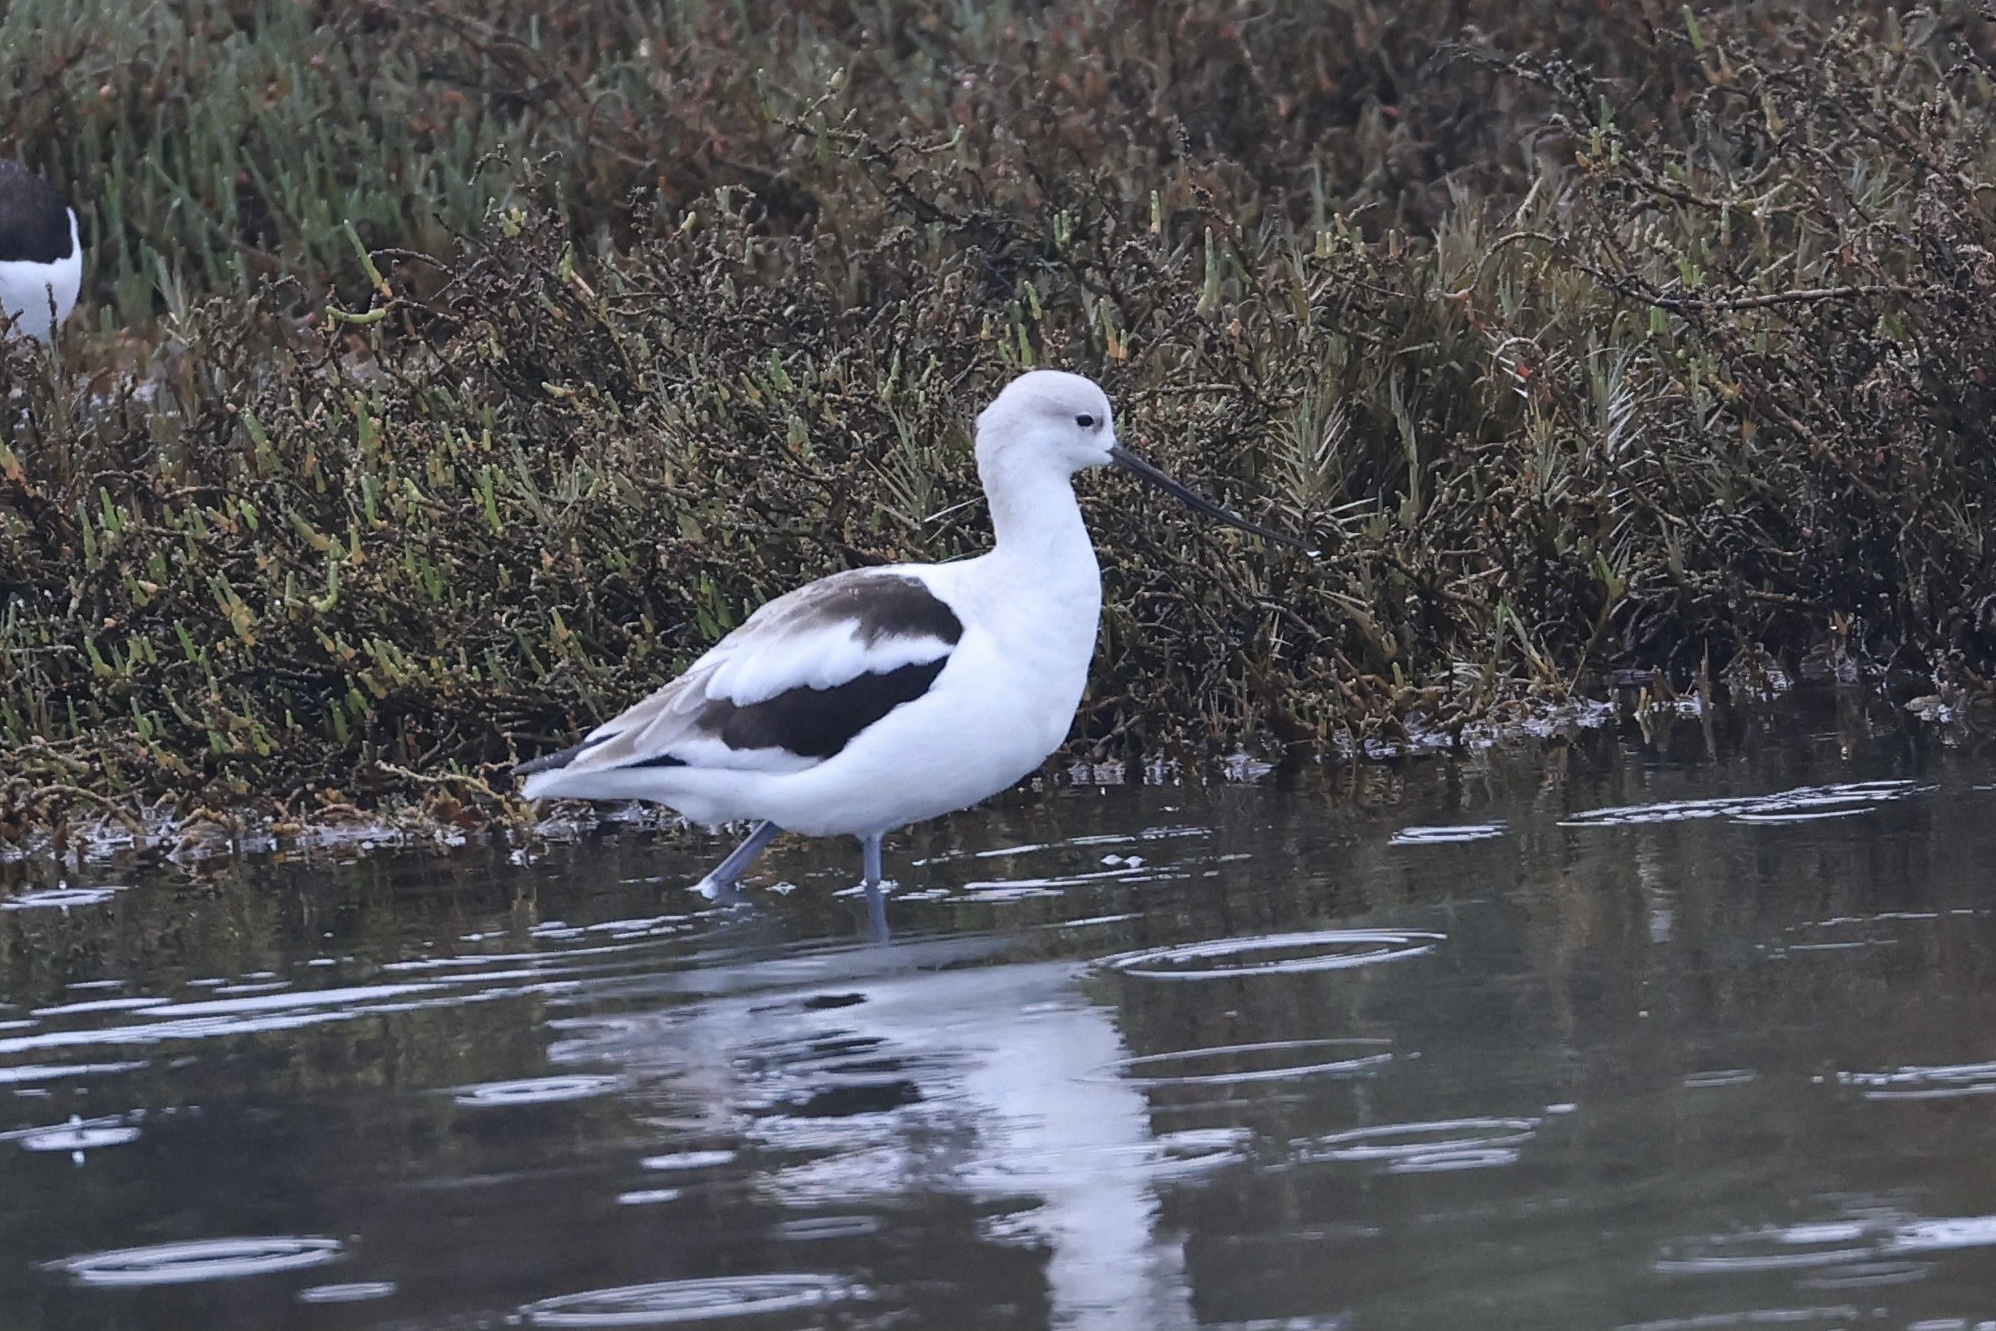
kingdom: Animalia
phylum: Chordata
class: Aves
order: Charadriiformes
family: Recurvirostridae
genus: Recurvirostra
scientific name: Recurvirostra americana
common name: American avocet
